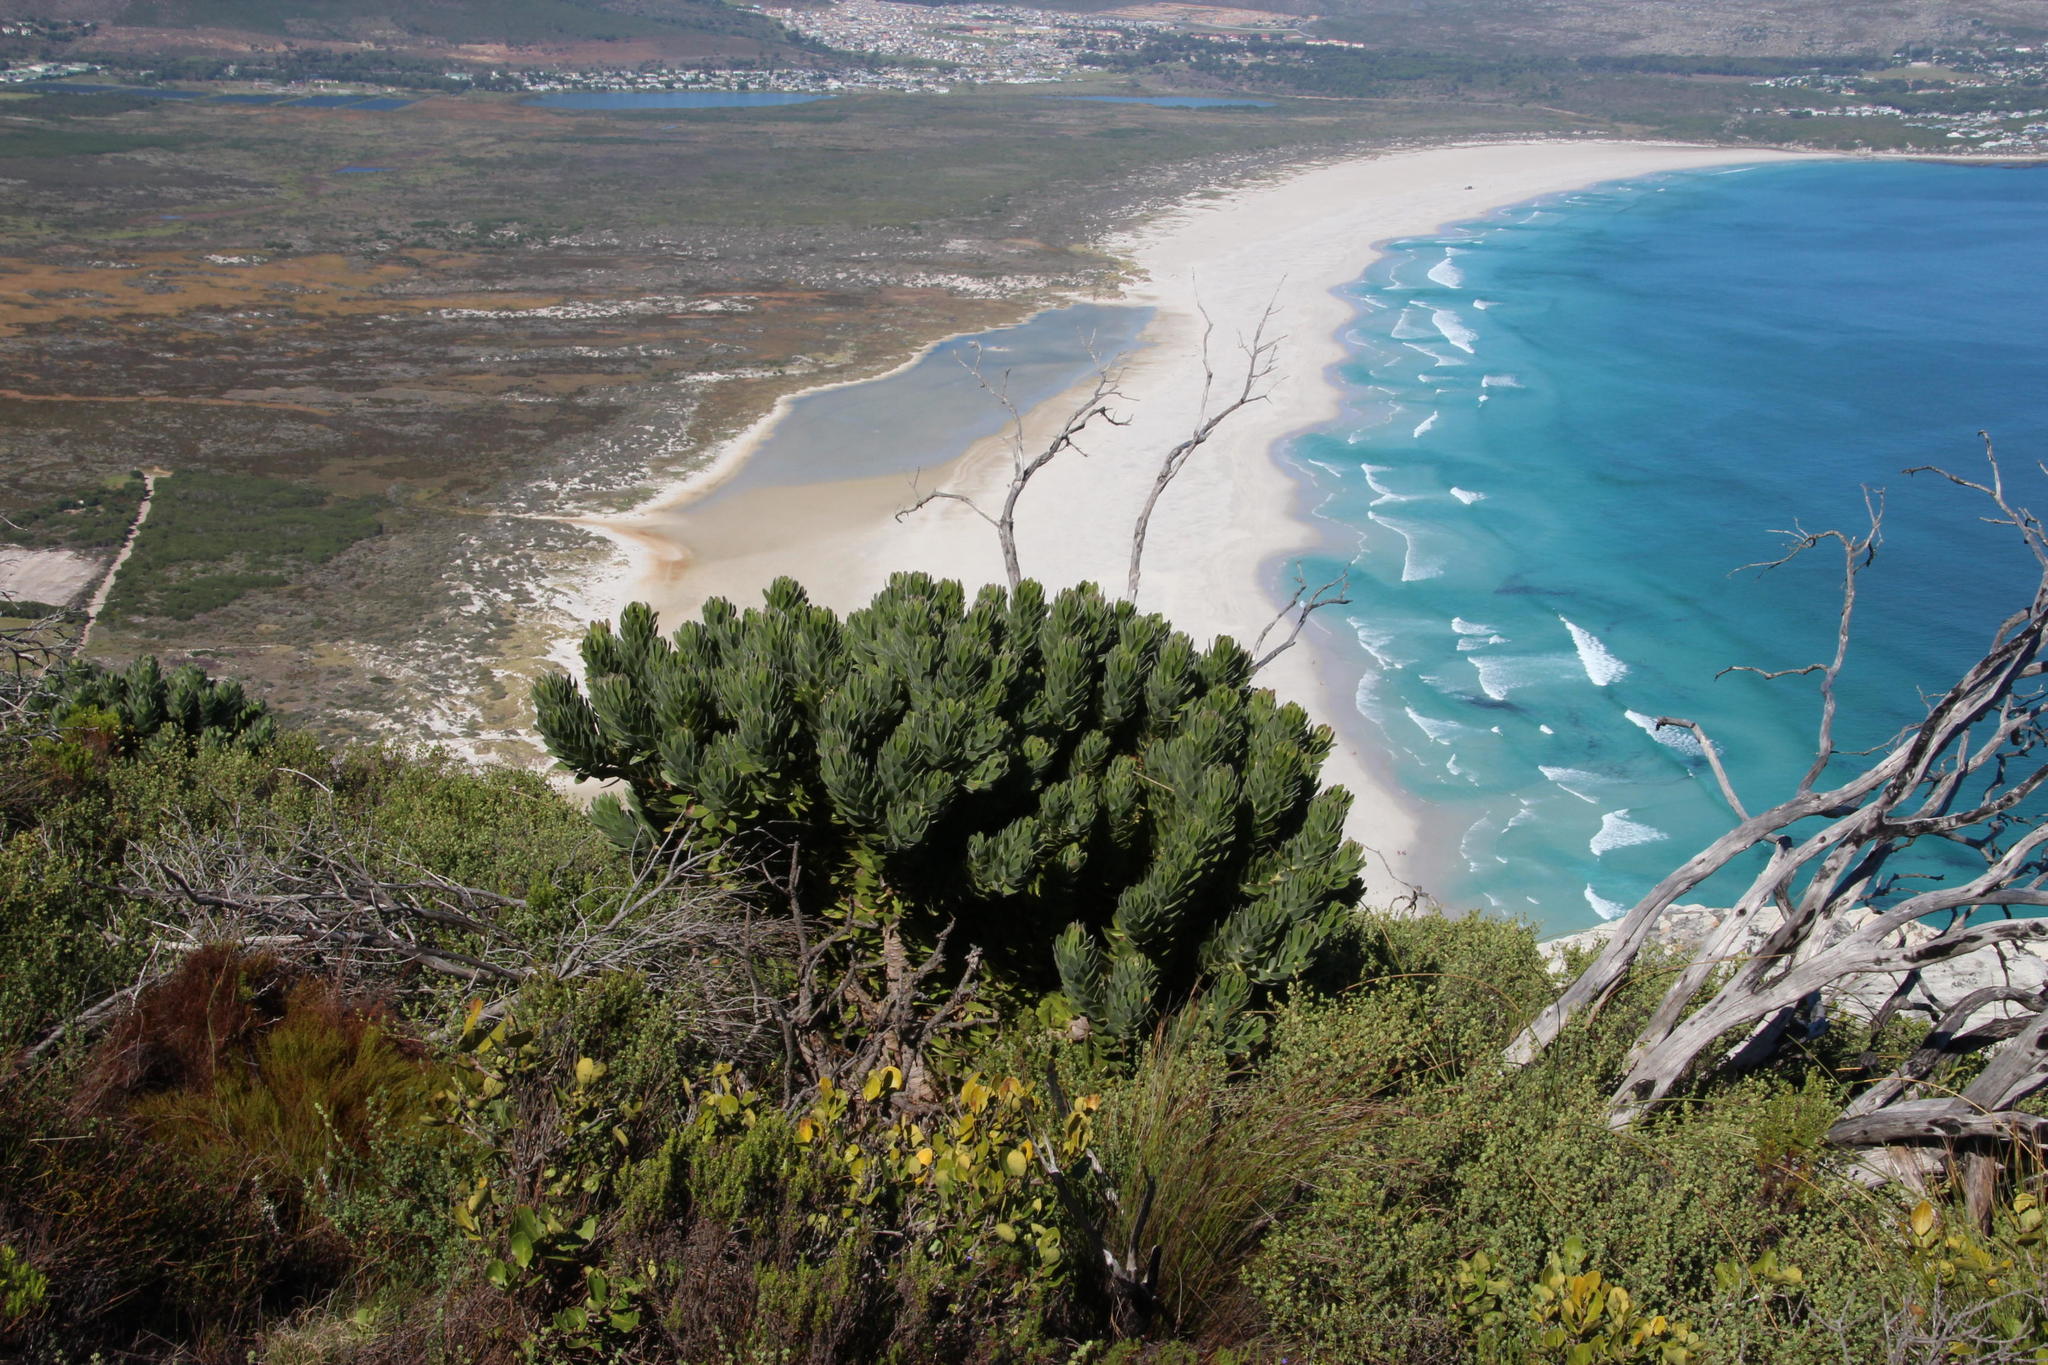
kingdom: Plantae
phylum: Tracheophyta
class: Magnoliopsida
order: Proteales
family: Proteaceae
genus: Mimetes
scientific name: Mimetes fimbriifolius
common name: Fringed bottlebrush
